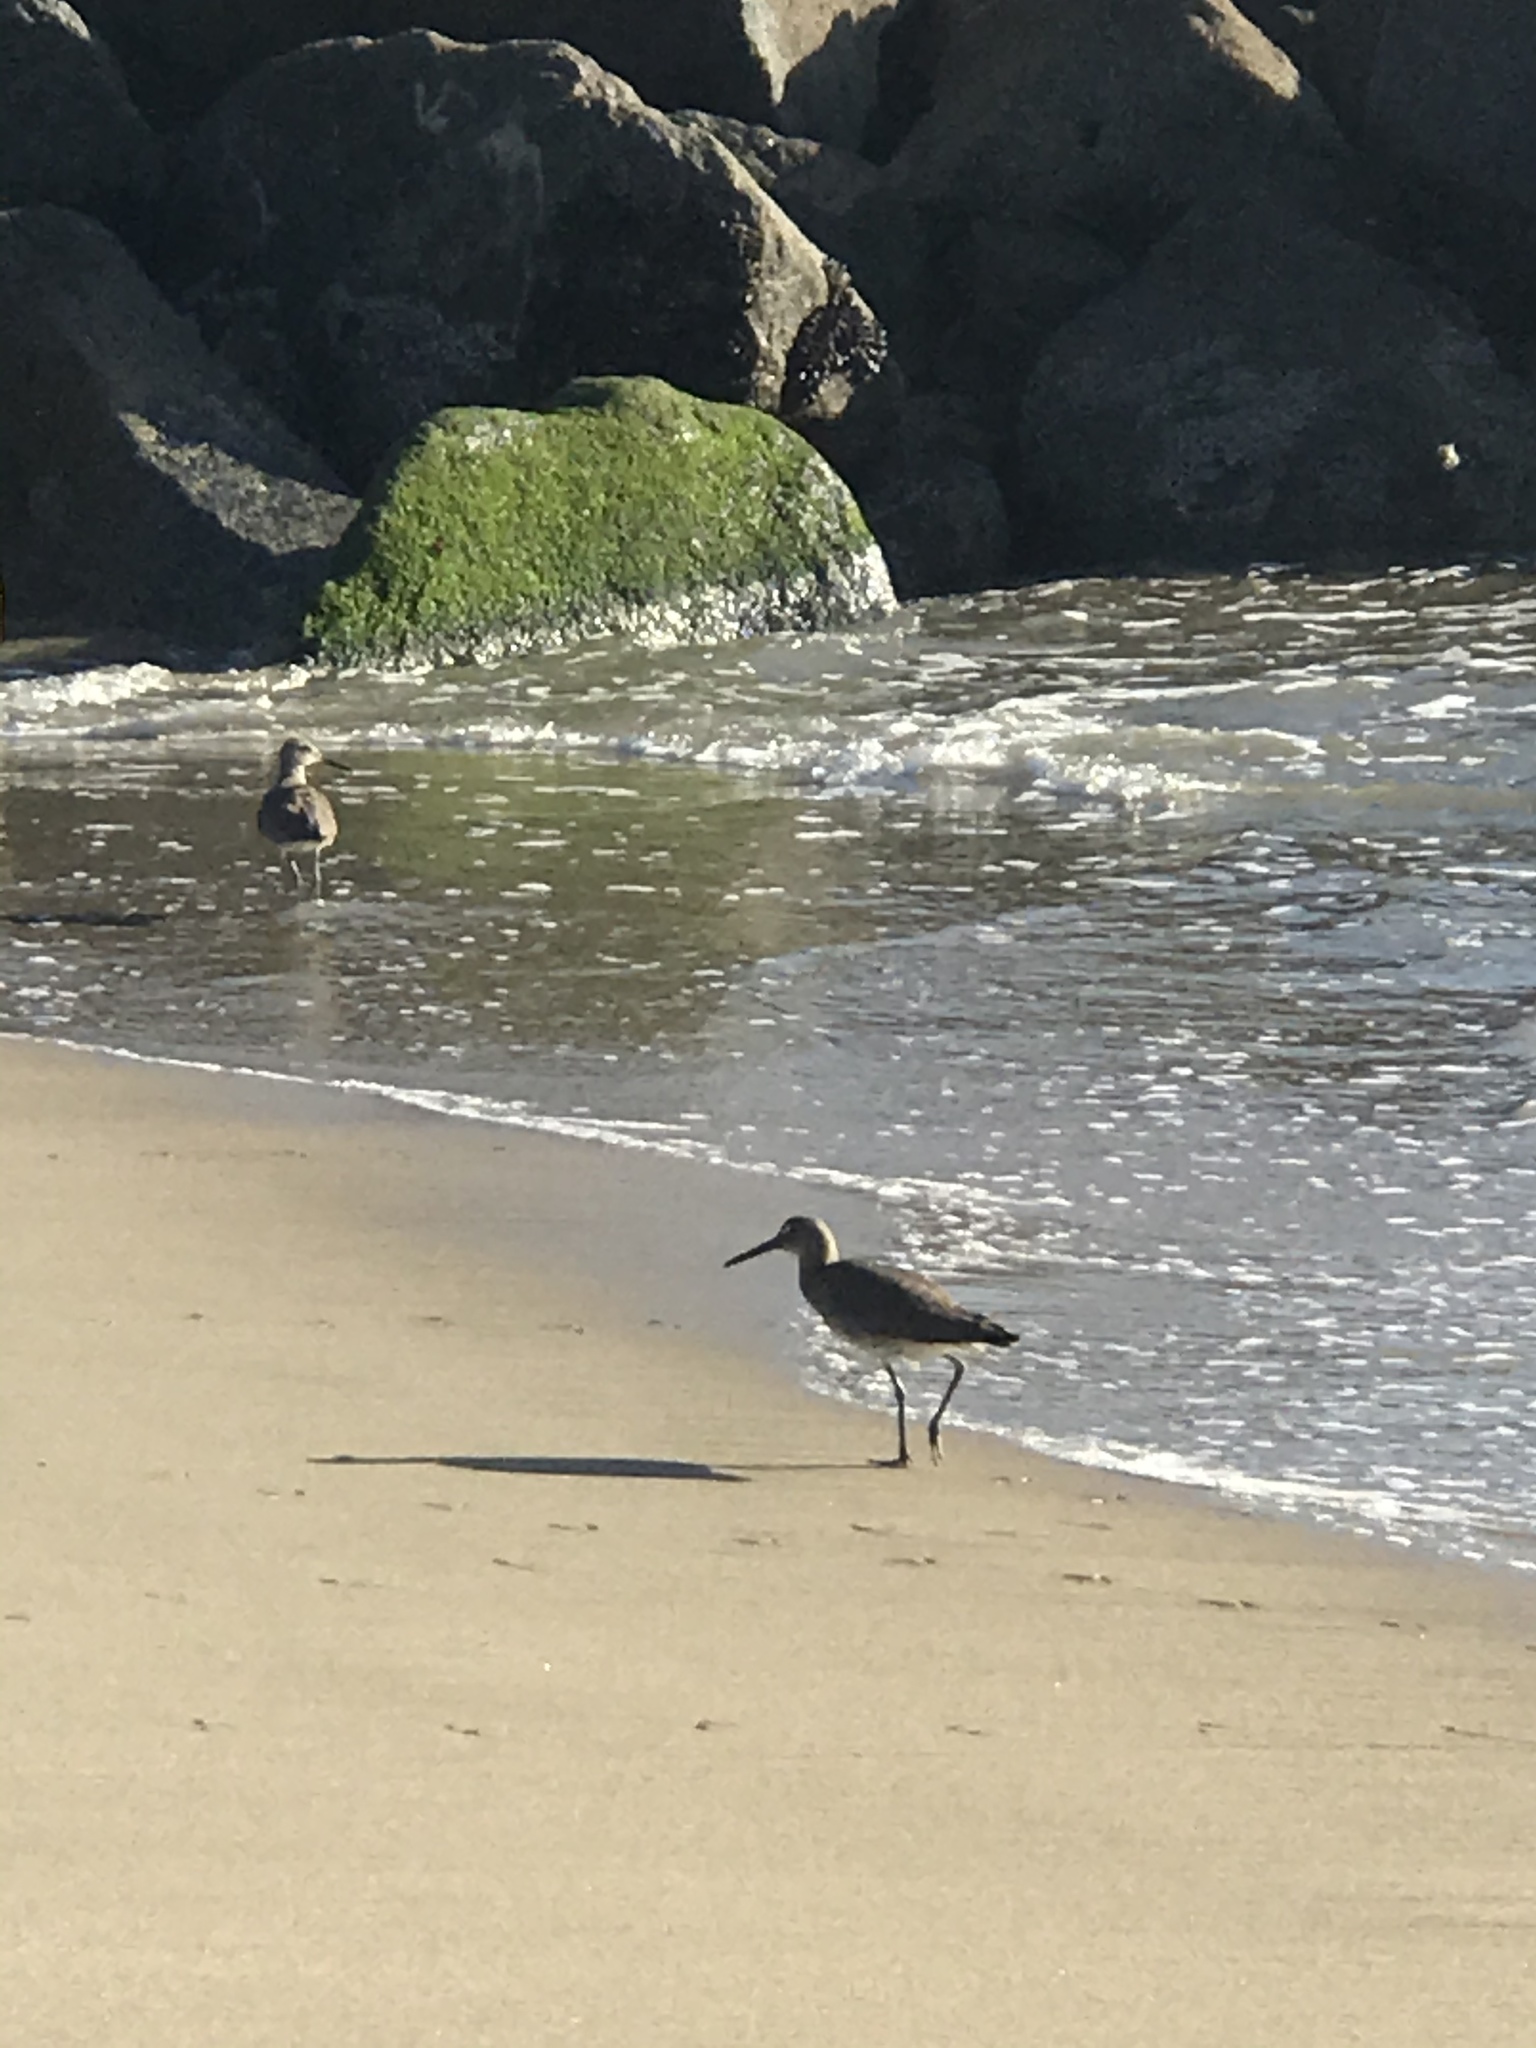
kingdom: Animalia
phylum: Chordata
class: Aves
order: Charadriiformes
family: Scolopacidae
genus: Tringa
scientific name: Tringa semipalmata
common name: Willet
